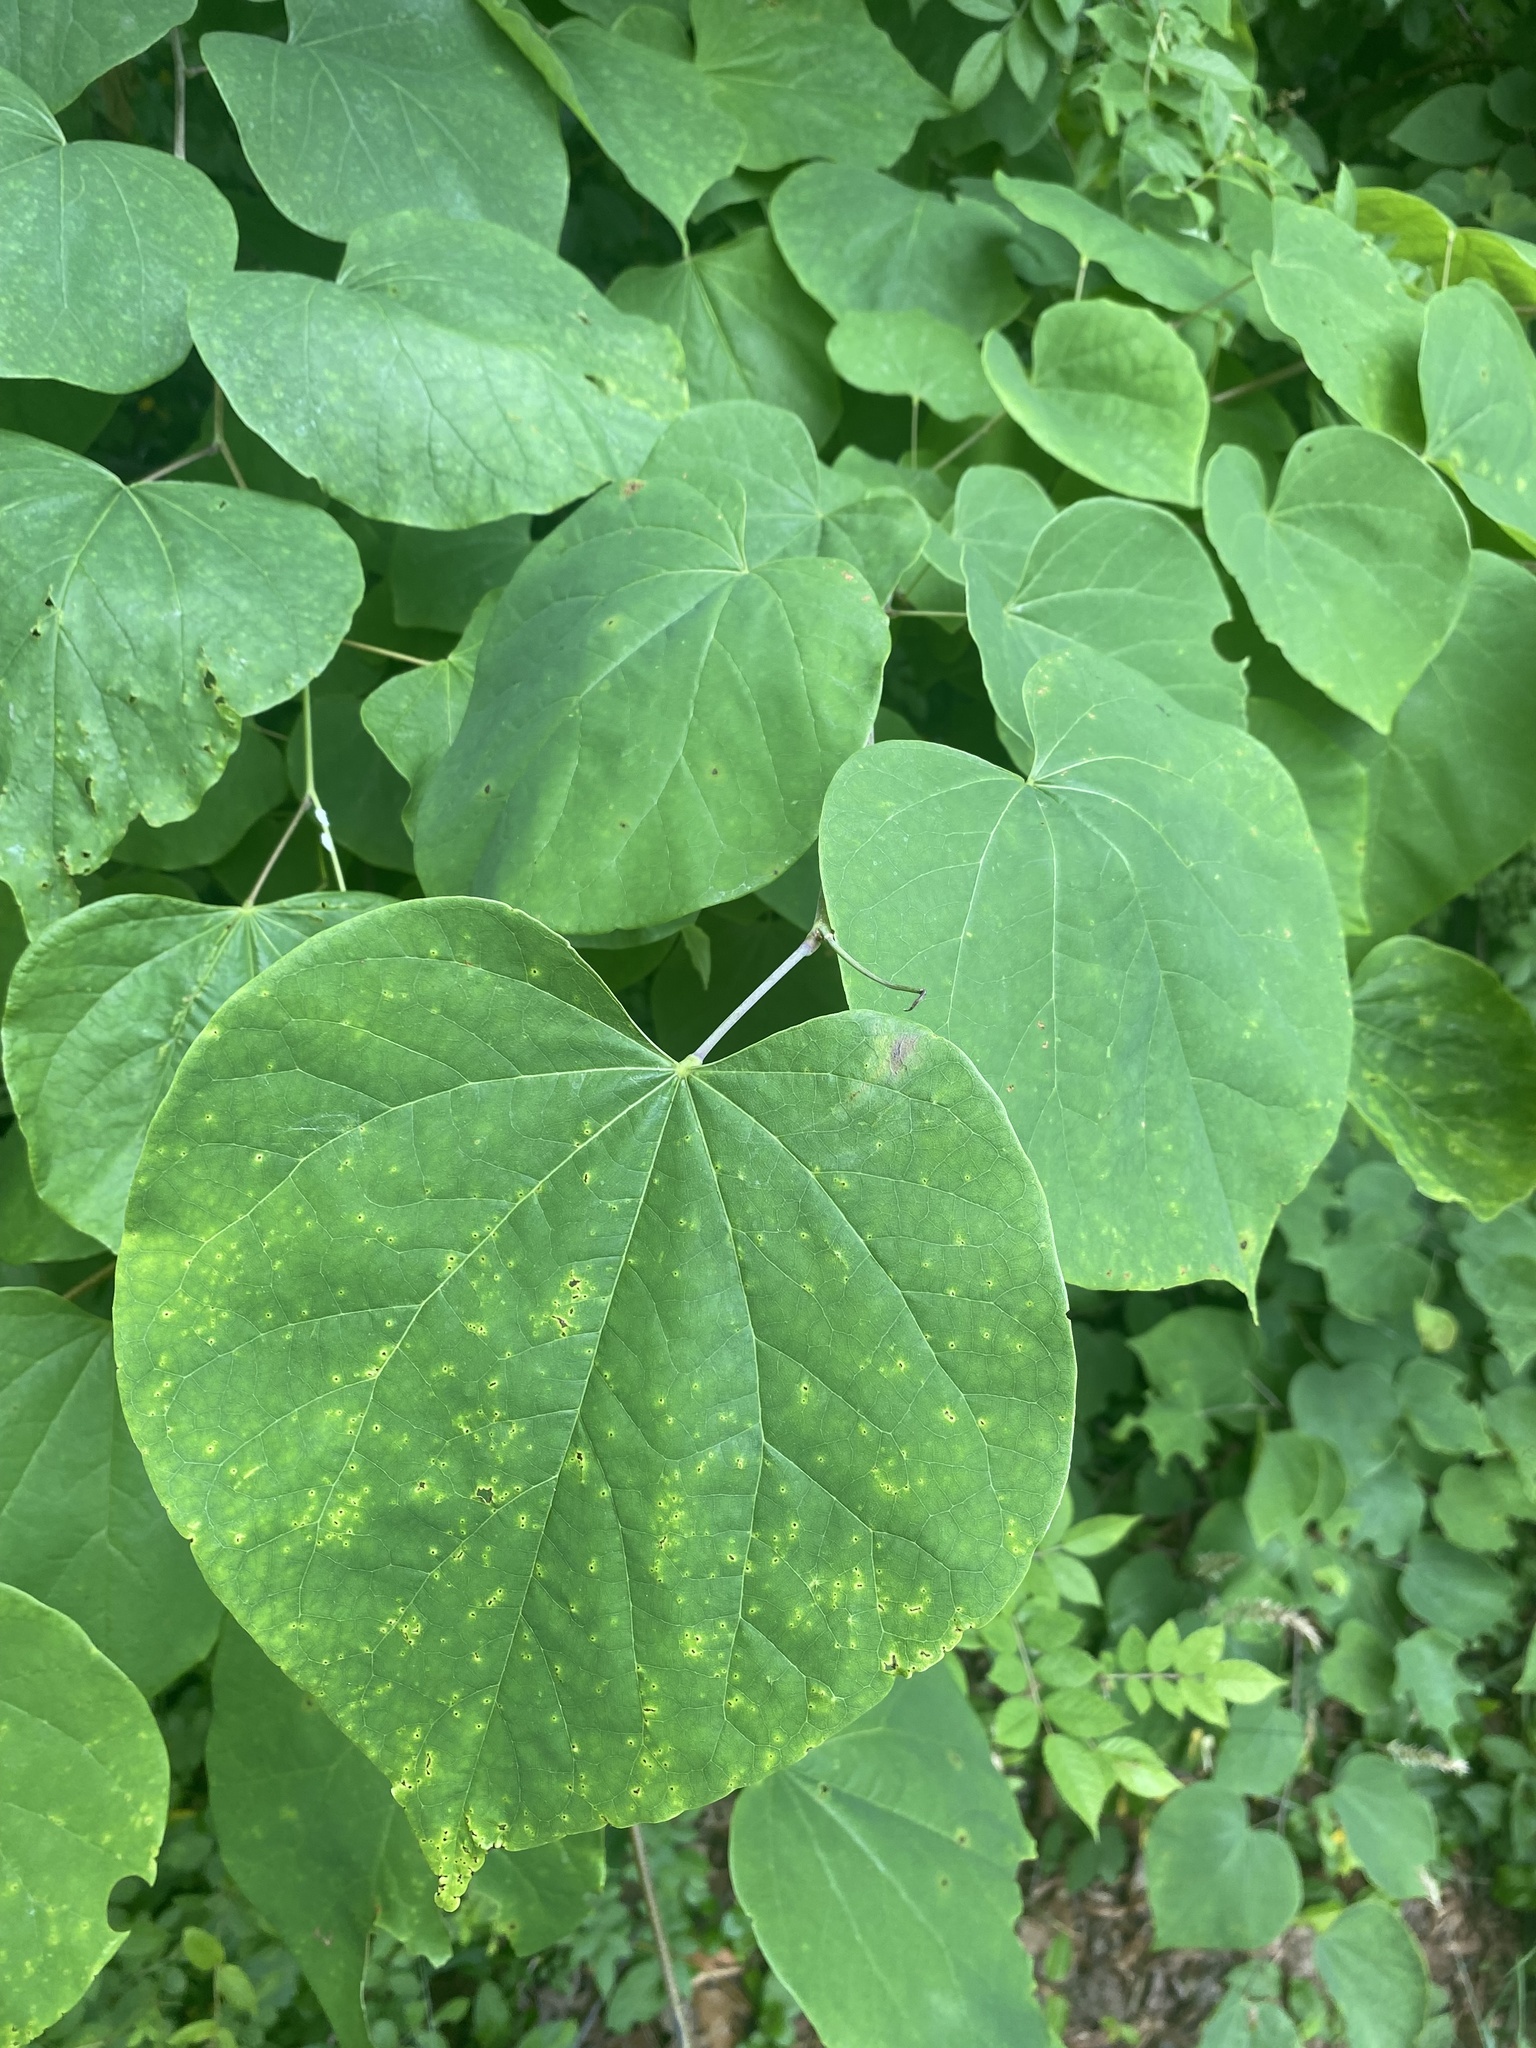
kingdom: Plantae
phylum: Tracheophyta
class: Magnoliopsida
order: Fabales
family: Fabaceae
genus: Cercis
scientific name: Cercis canadensis
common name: Eastern redbud
